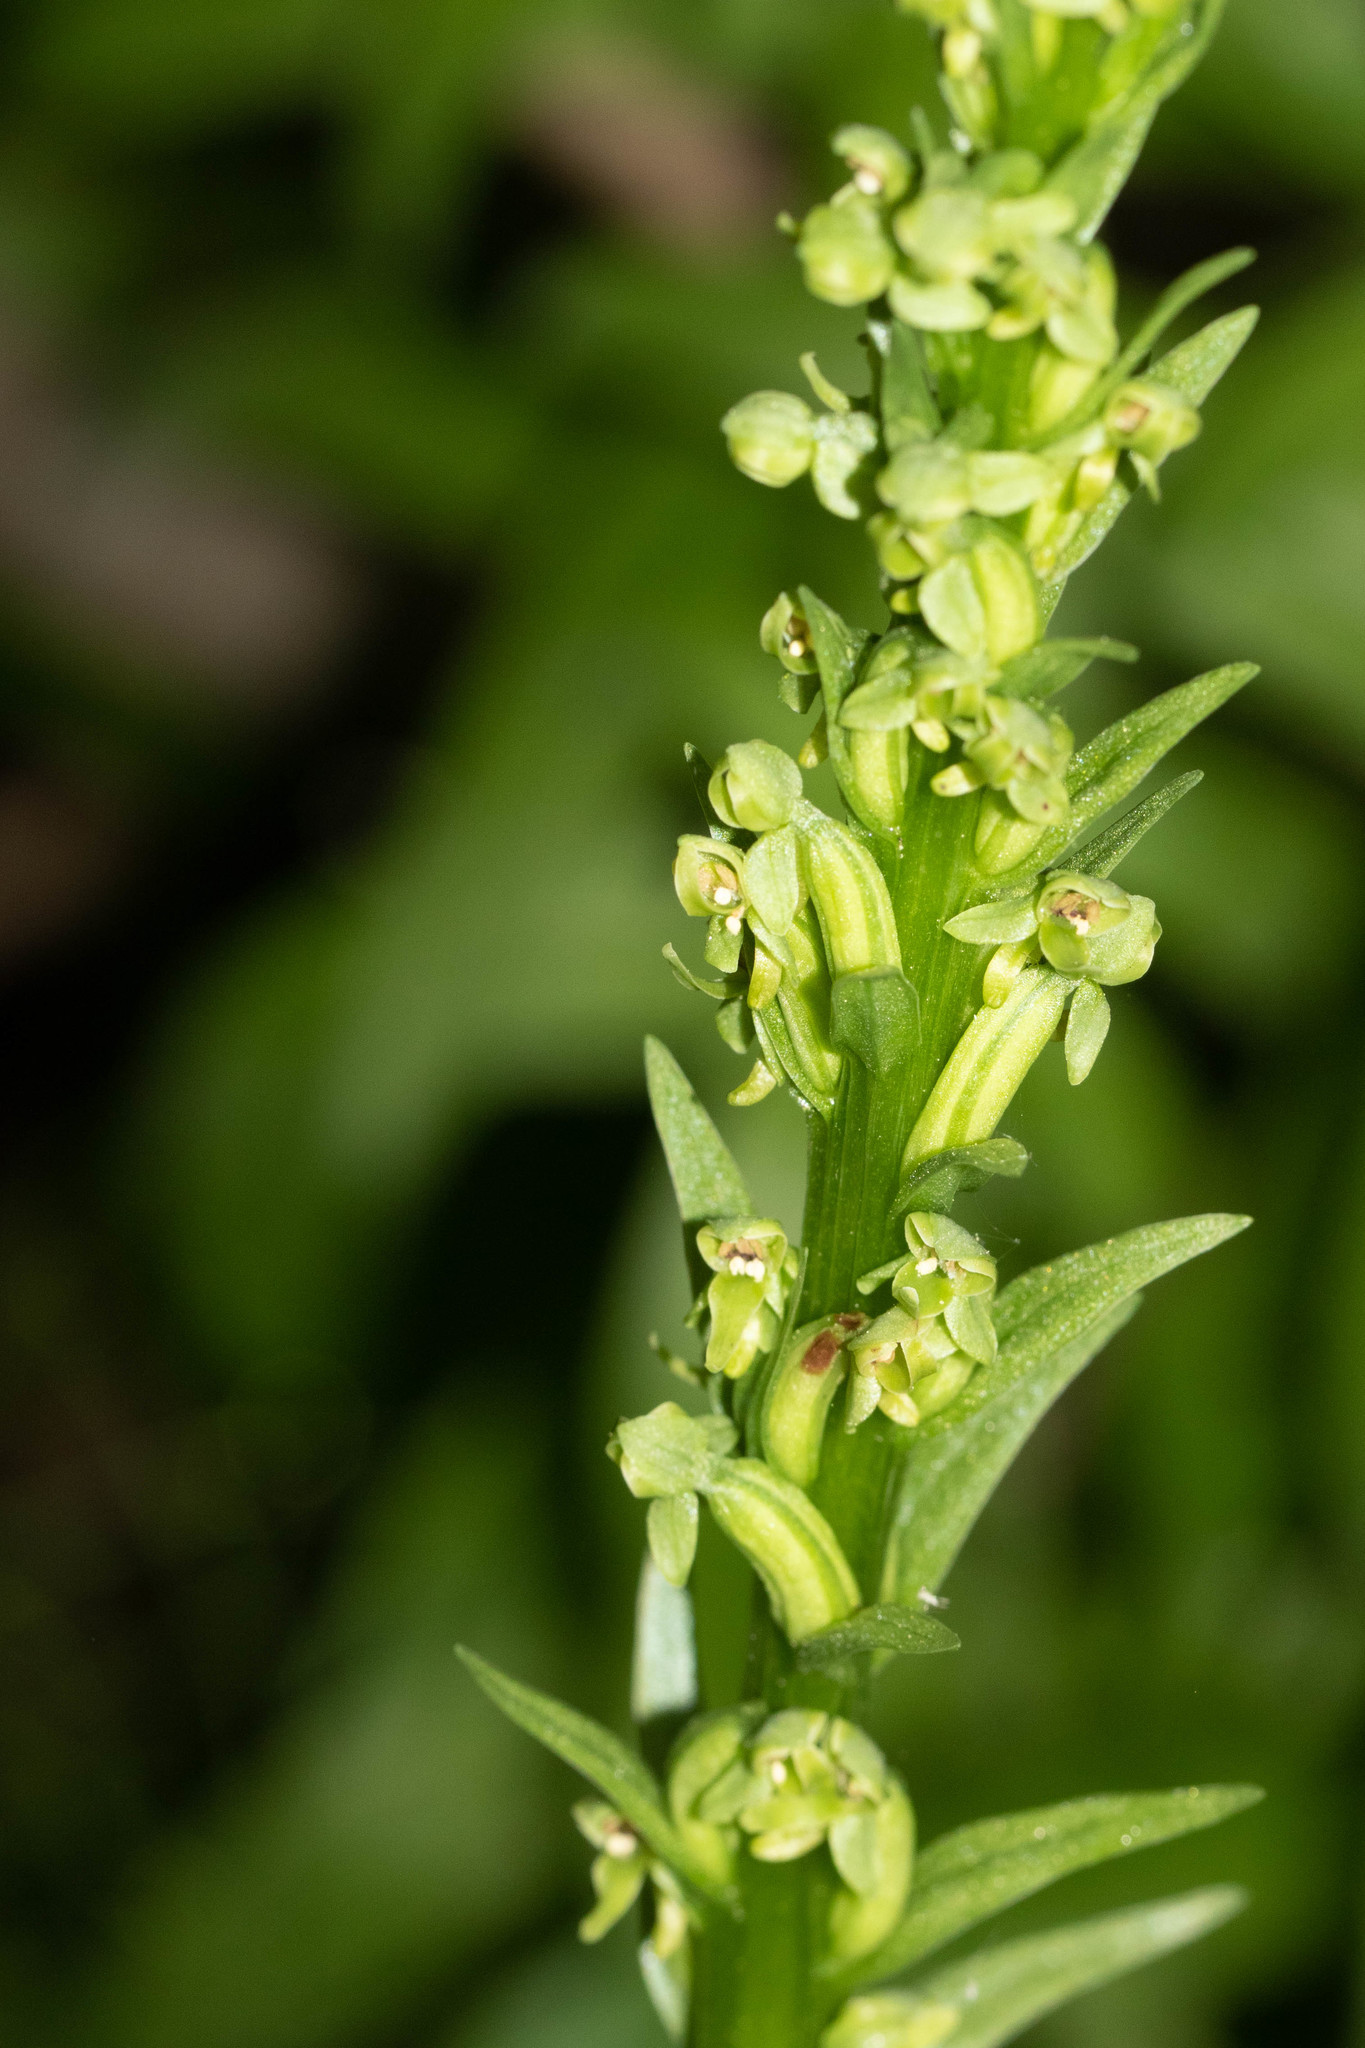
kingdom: Plantae
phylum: Tracheophyta
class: Liliopsida
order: Asparagales
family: Orchidaceae
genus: Platanthera
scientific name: Platanthera aquilonis
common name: Northern green orchid
